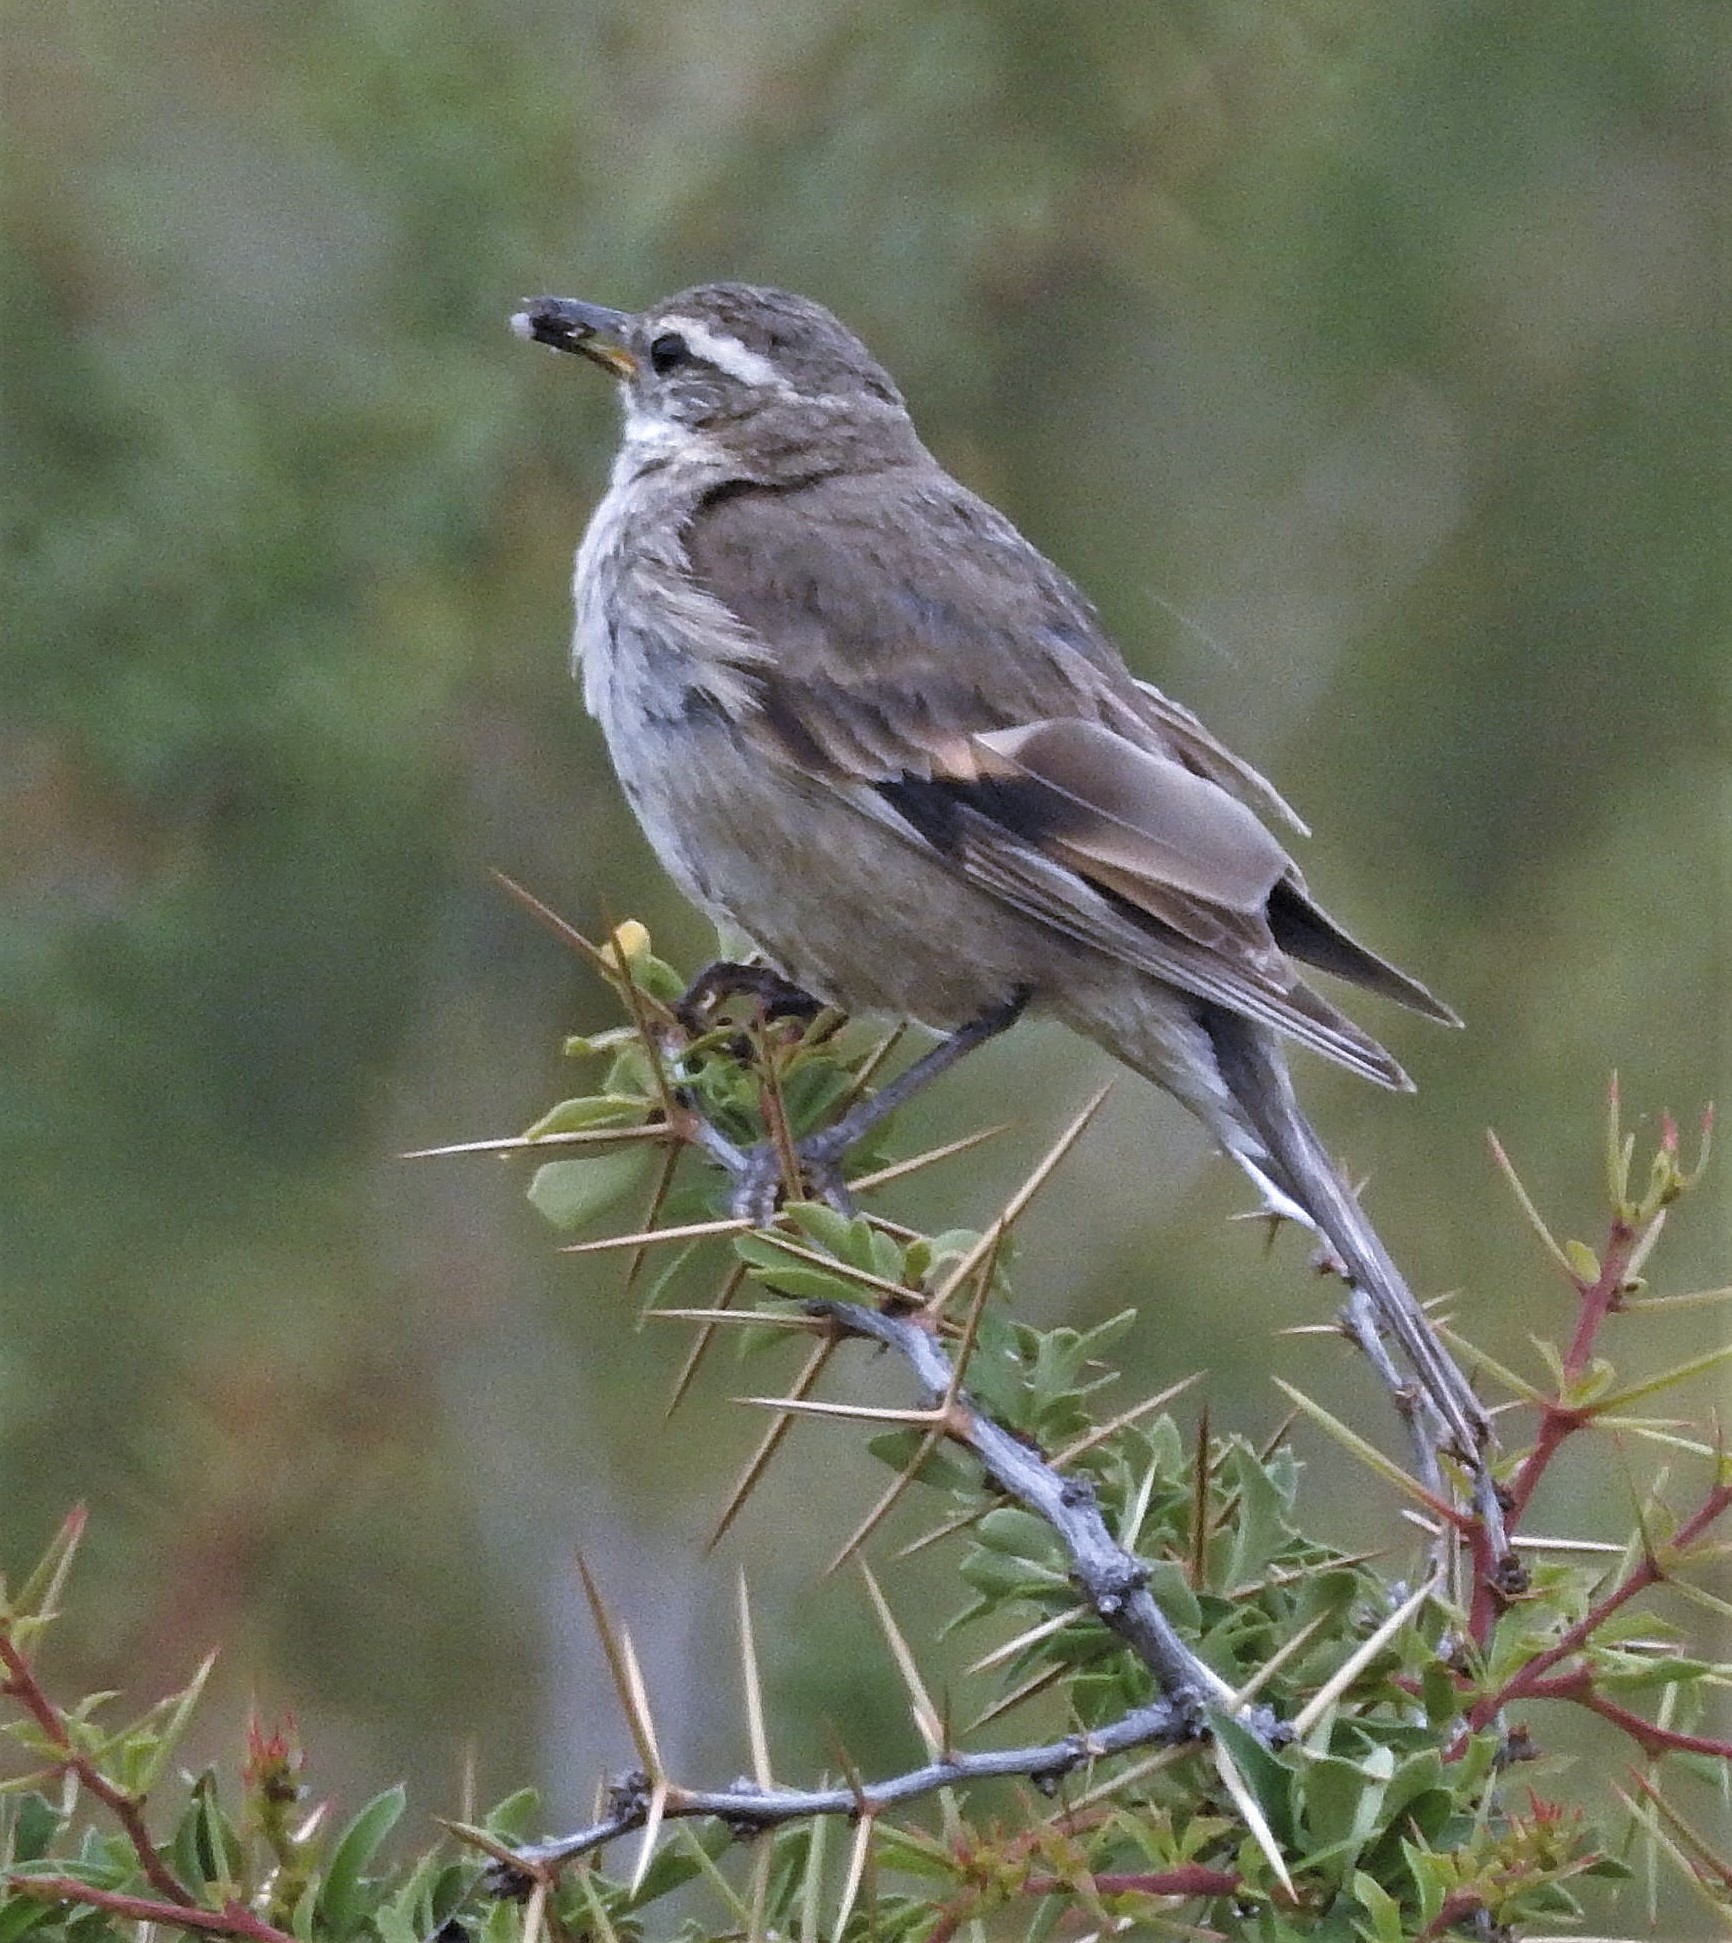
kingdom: Animalia
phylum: Chordata
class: Aves
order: Passeriformes
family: Furnariidae
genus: Cinclodes
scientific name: Cinclodes fuscus
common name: Buff-winged cinclodes
